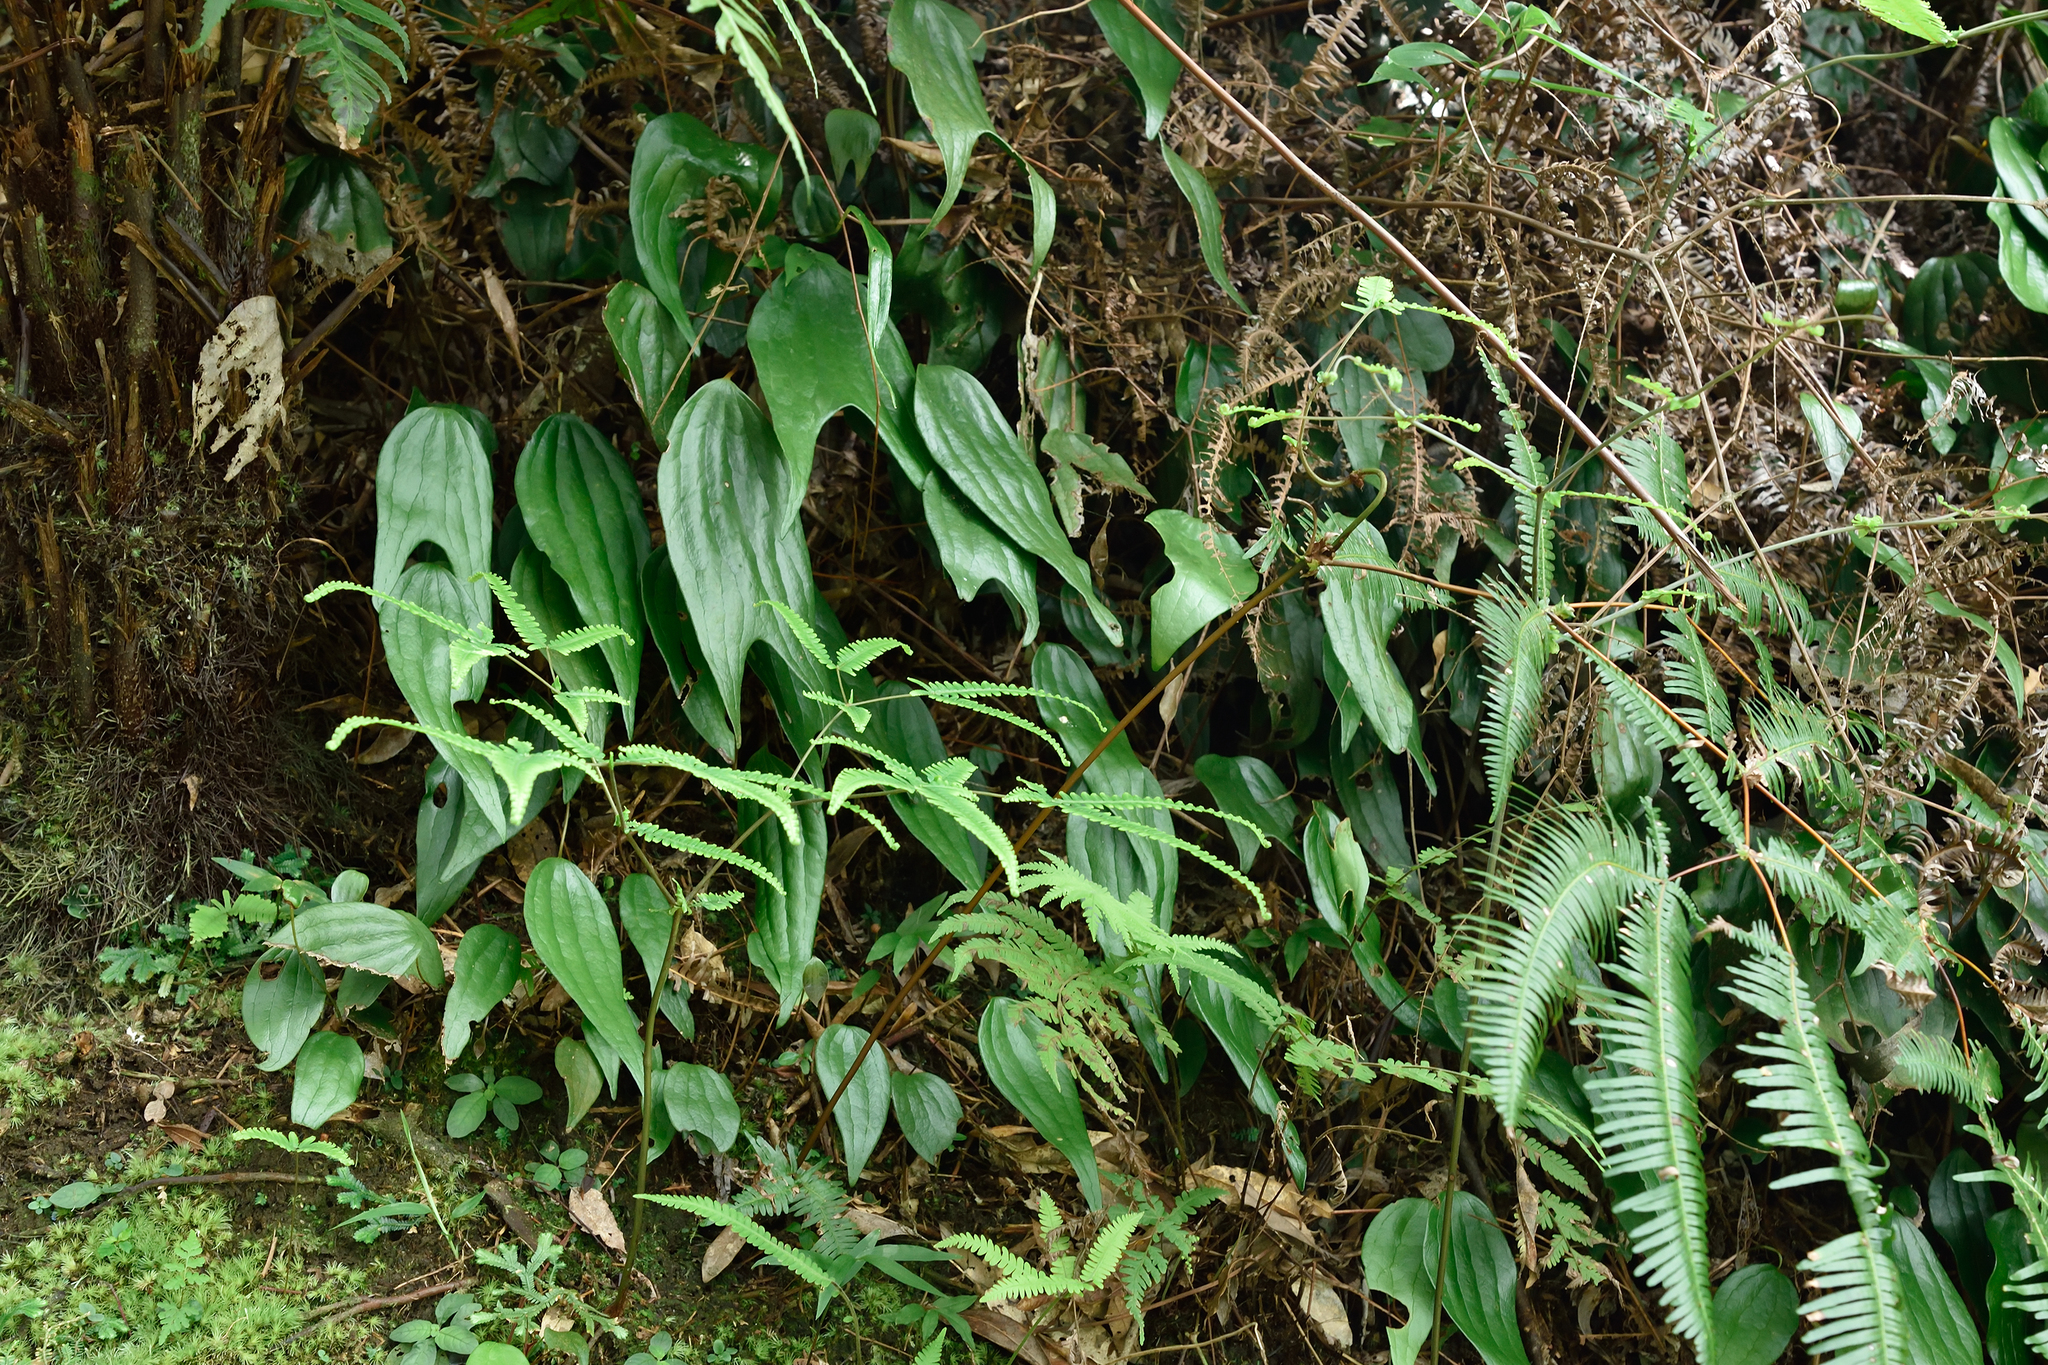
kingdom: Plantae
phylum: Tracheophyta
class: Polypodiopsida
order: Gleicheniales
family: Dipteridaceae
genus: Cheiropleuria
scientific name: Cheiropleuria integrifolia
